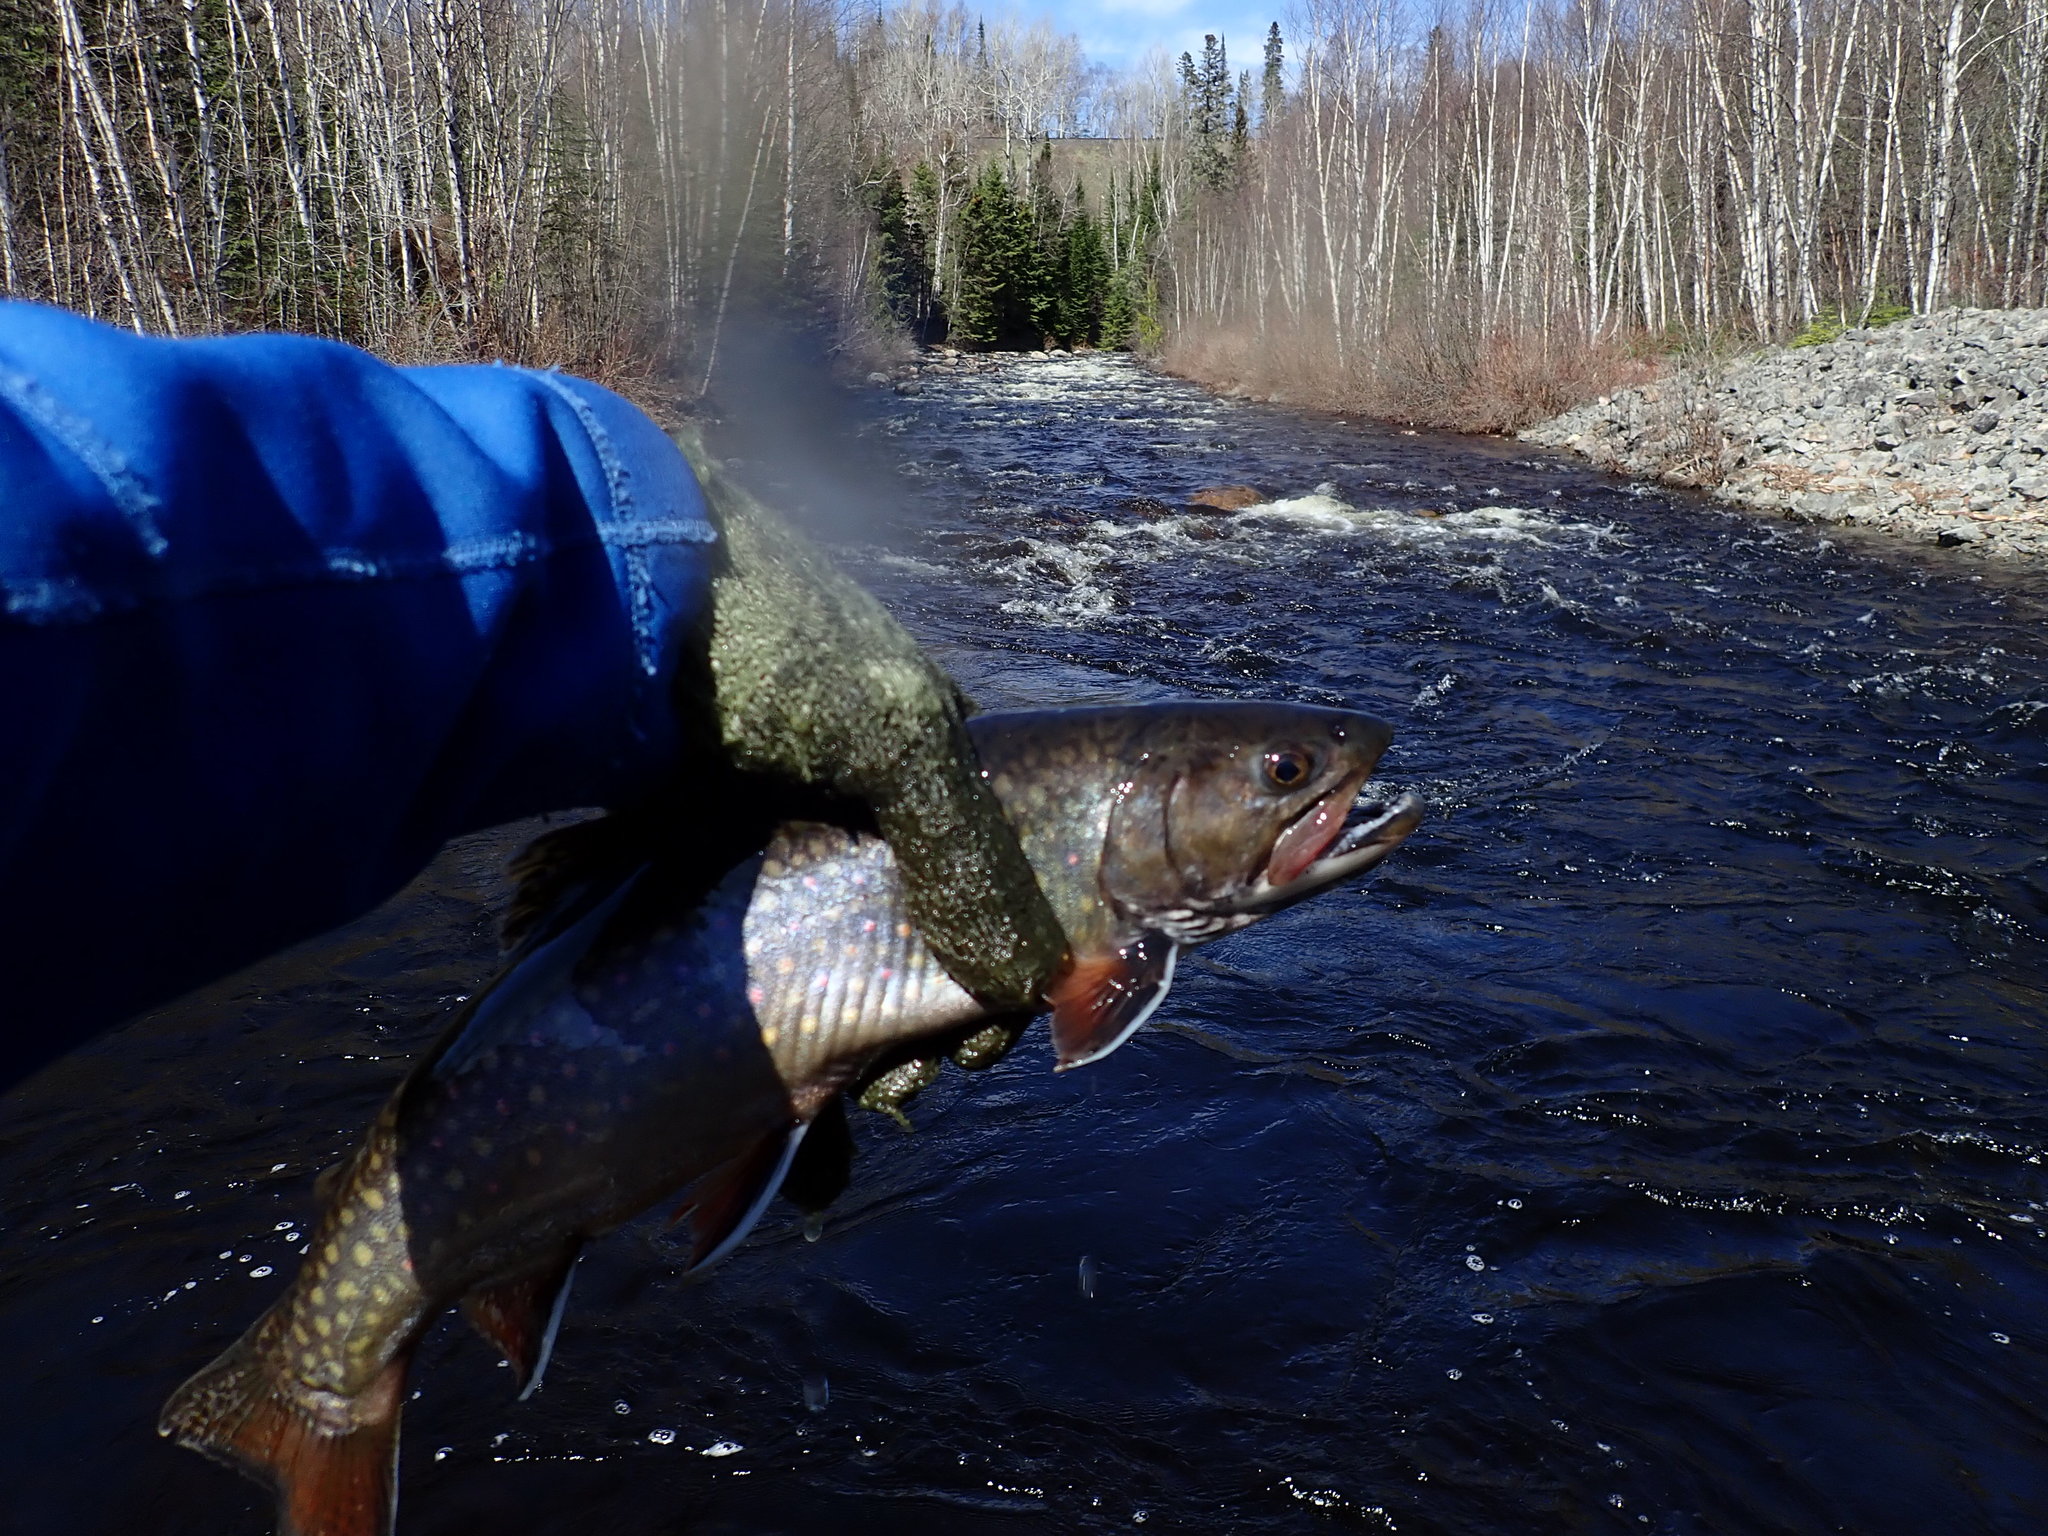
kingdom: Animalia
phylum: Chordata
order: Salmoniformes
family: Salmonidae
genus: Salvelinus
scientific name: Salvelinus fontinalis
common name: Brook trout
